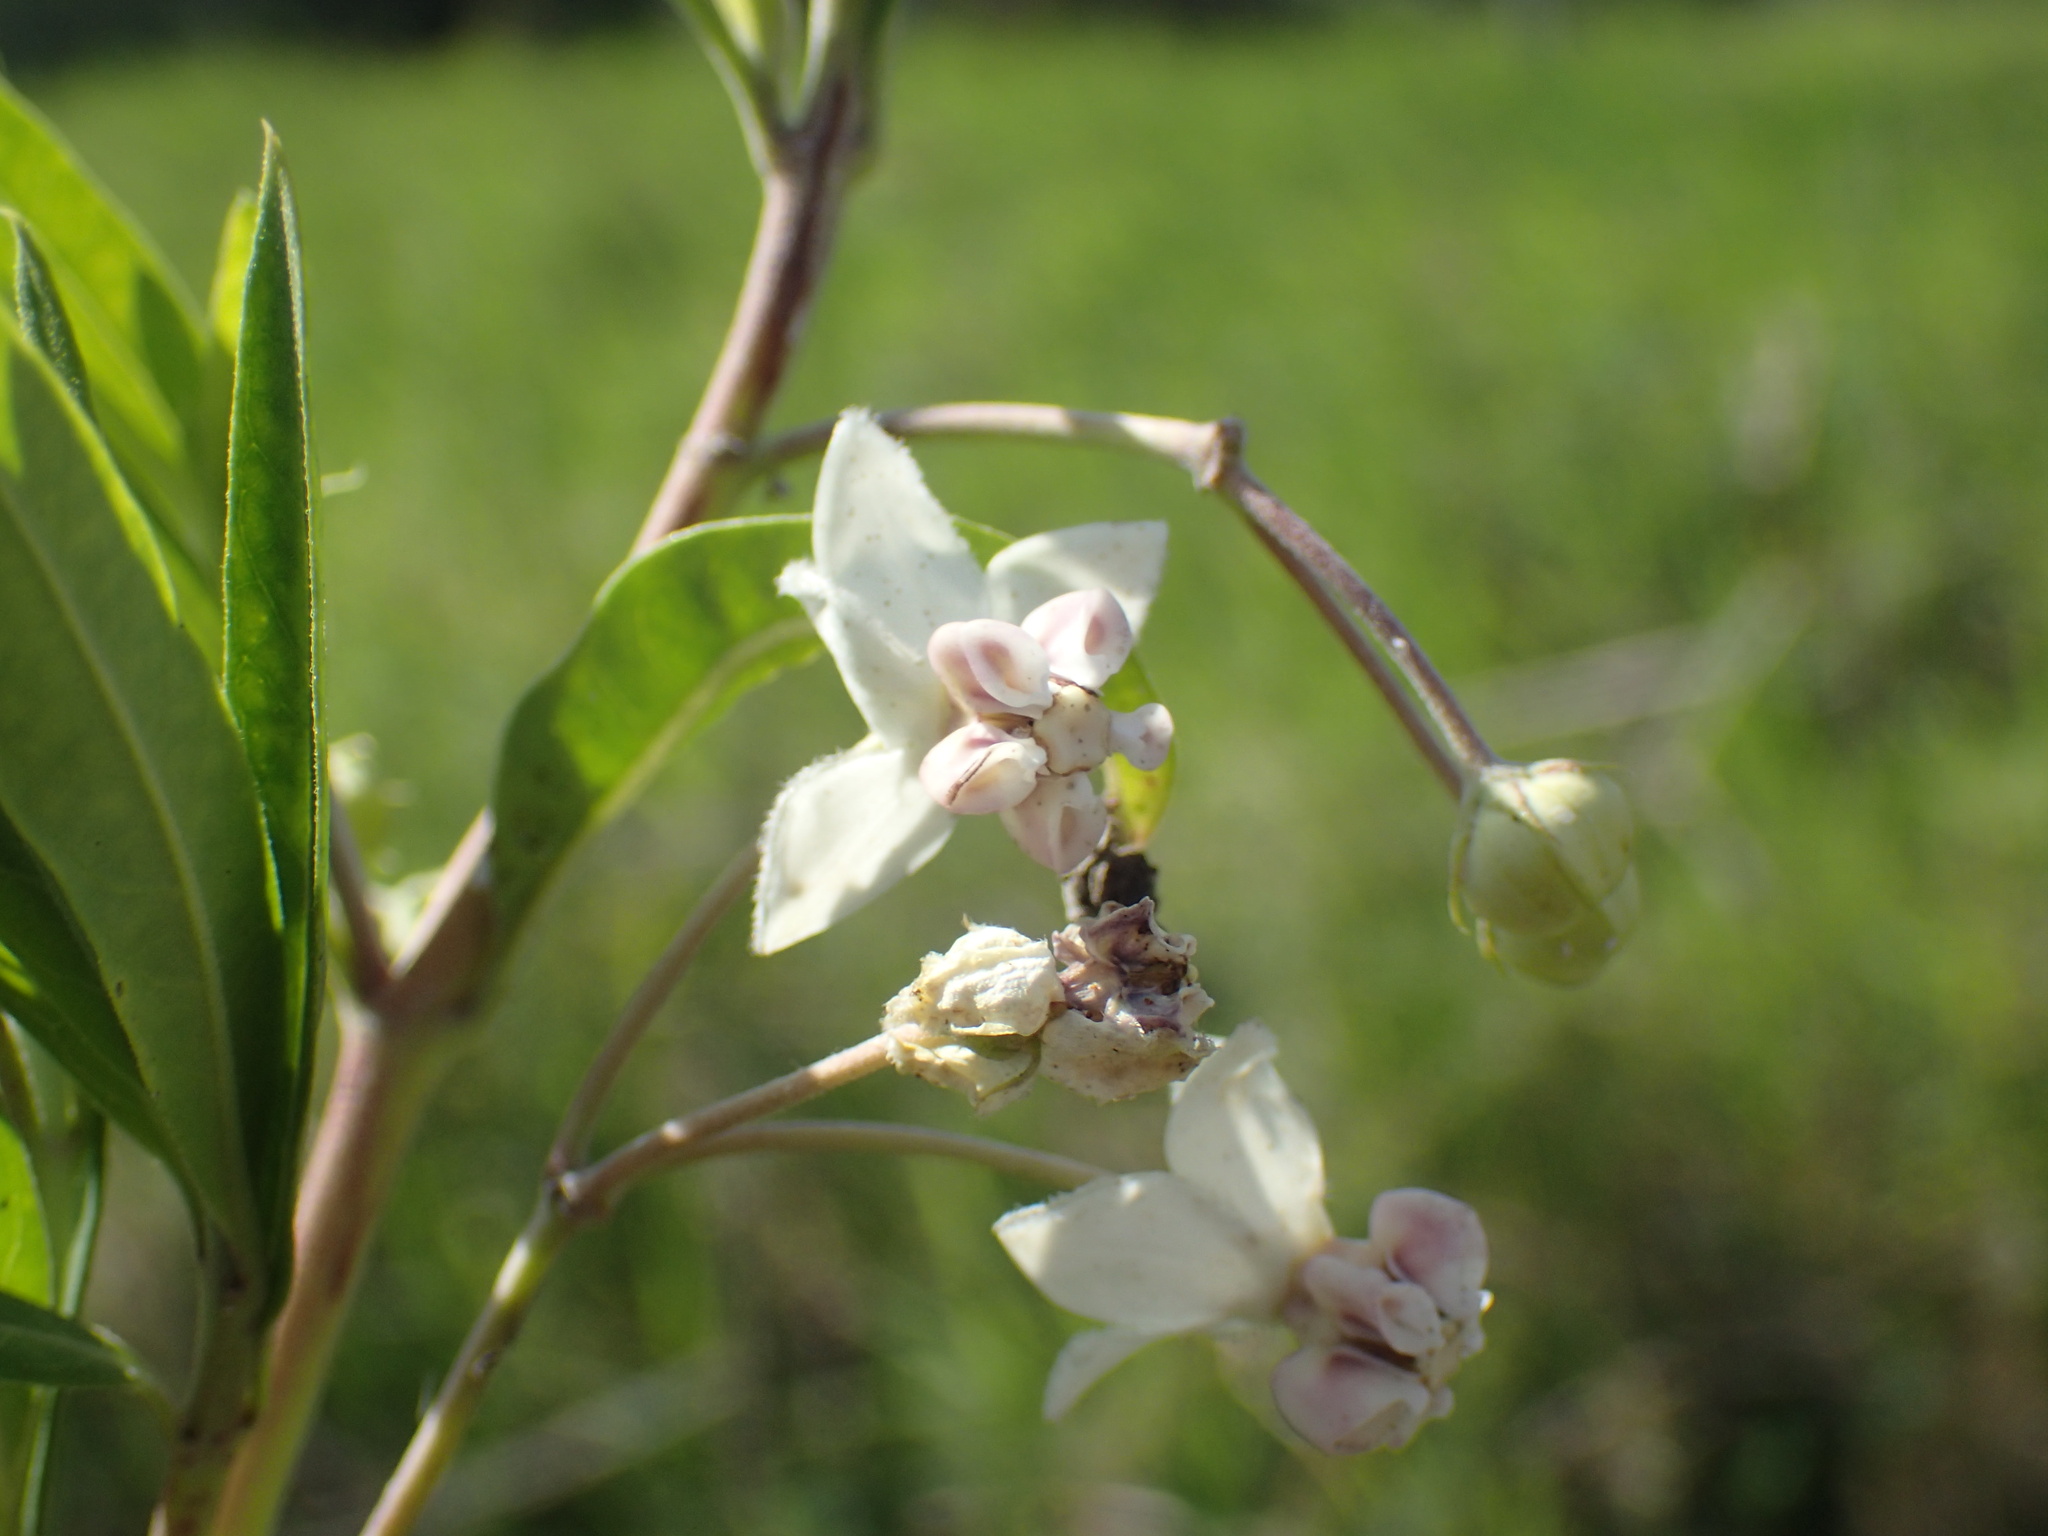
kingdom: Plantae
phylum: Tracheophyta
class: Magnoliopsida
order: Gentianales
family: Apocynaceae
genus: Gomphocarpus
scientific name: Gomphocarpus physocarpus
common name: Balloon cotton bush
